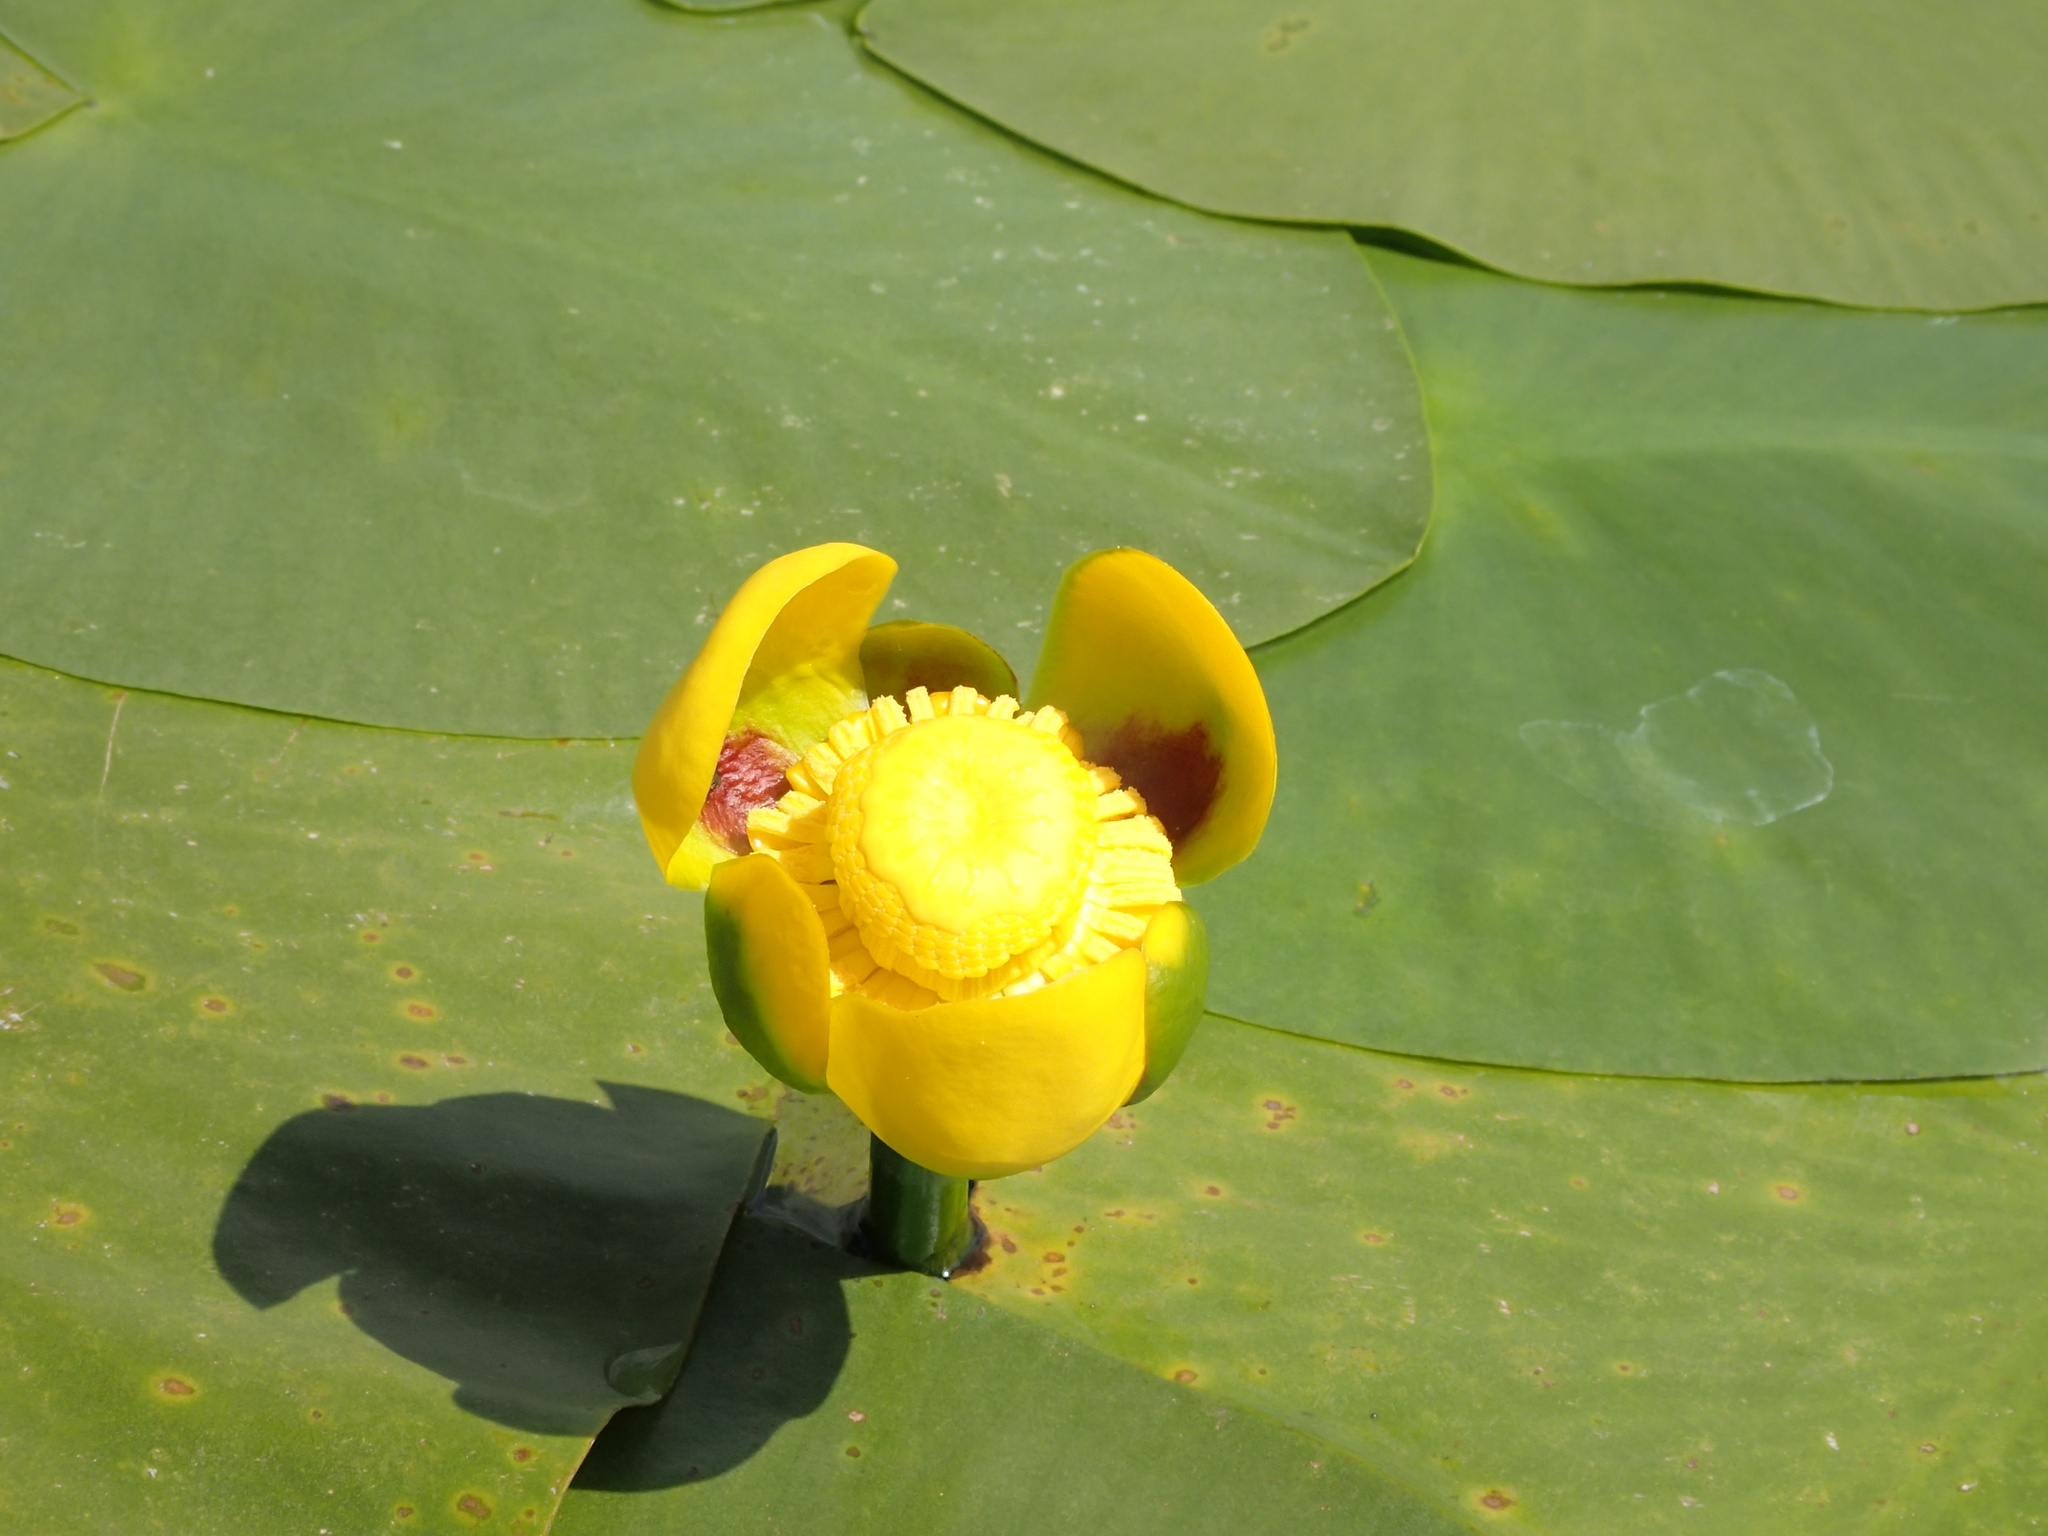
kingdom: Plantae
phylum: Tracheophyta
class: Magnoliopsida
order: Nymphaeales
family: Nymphaeaceae
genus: Nuphar
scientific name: Nuphar variegata
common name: Beaver-root
